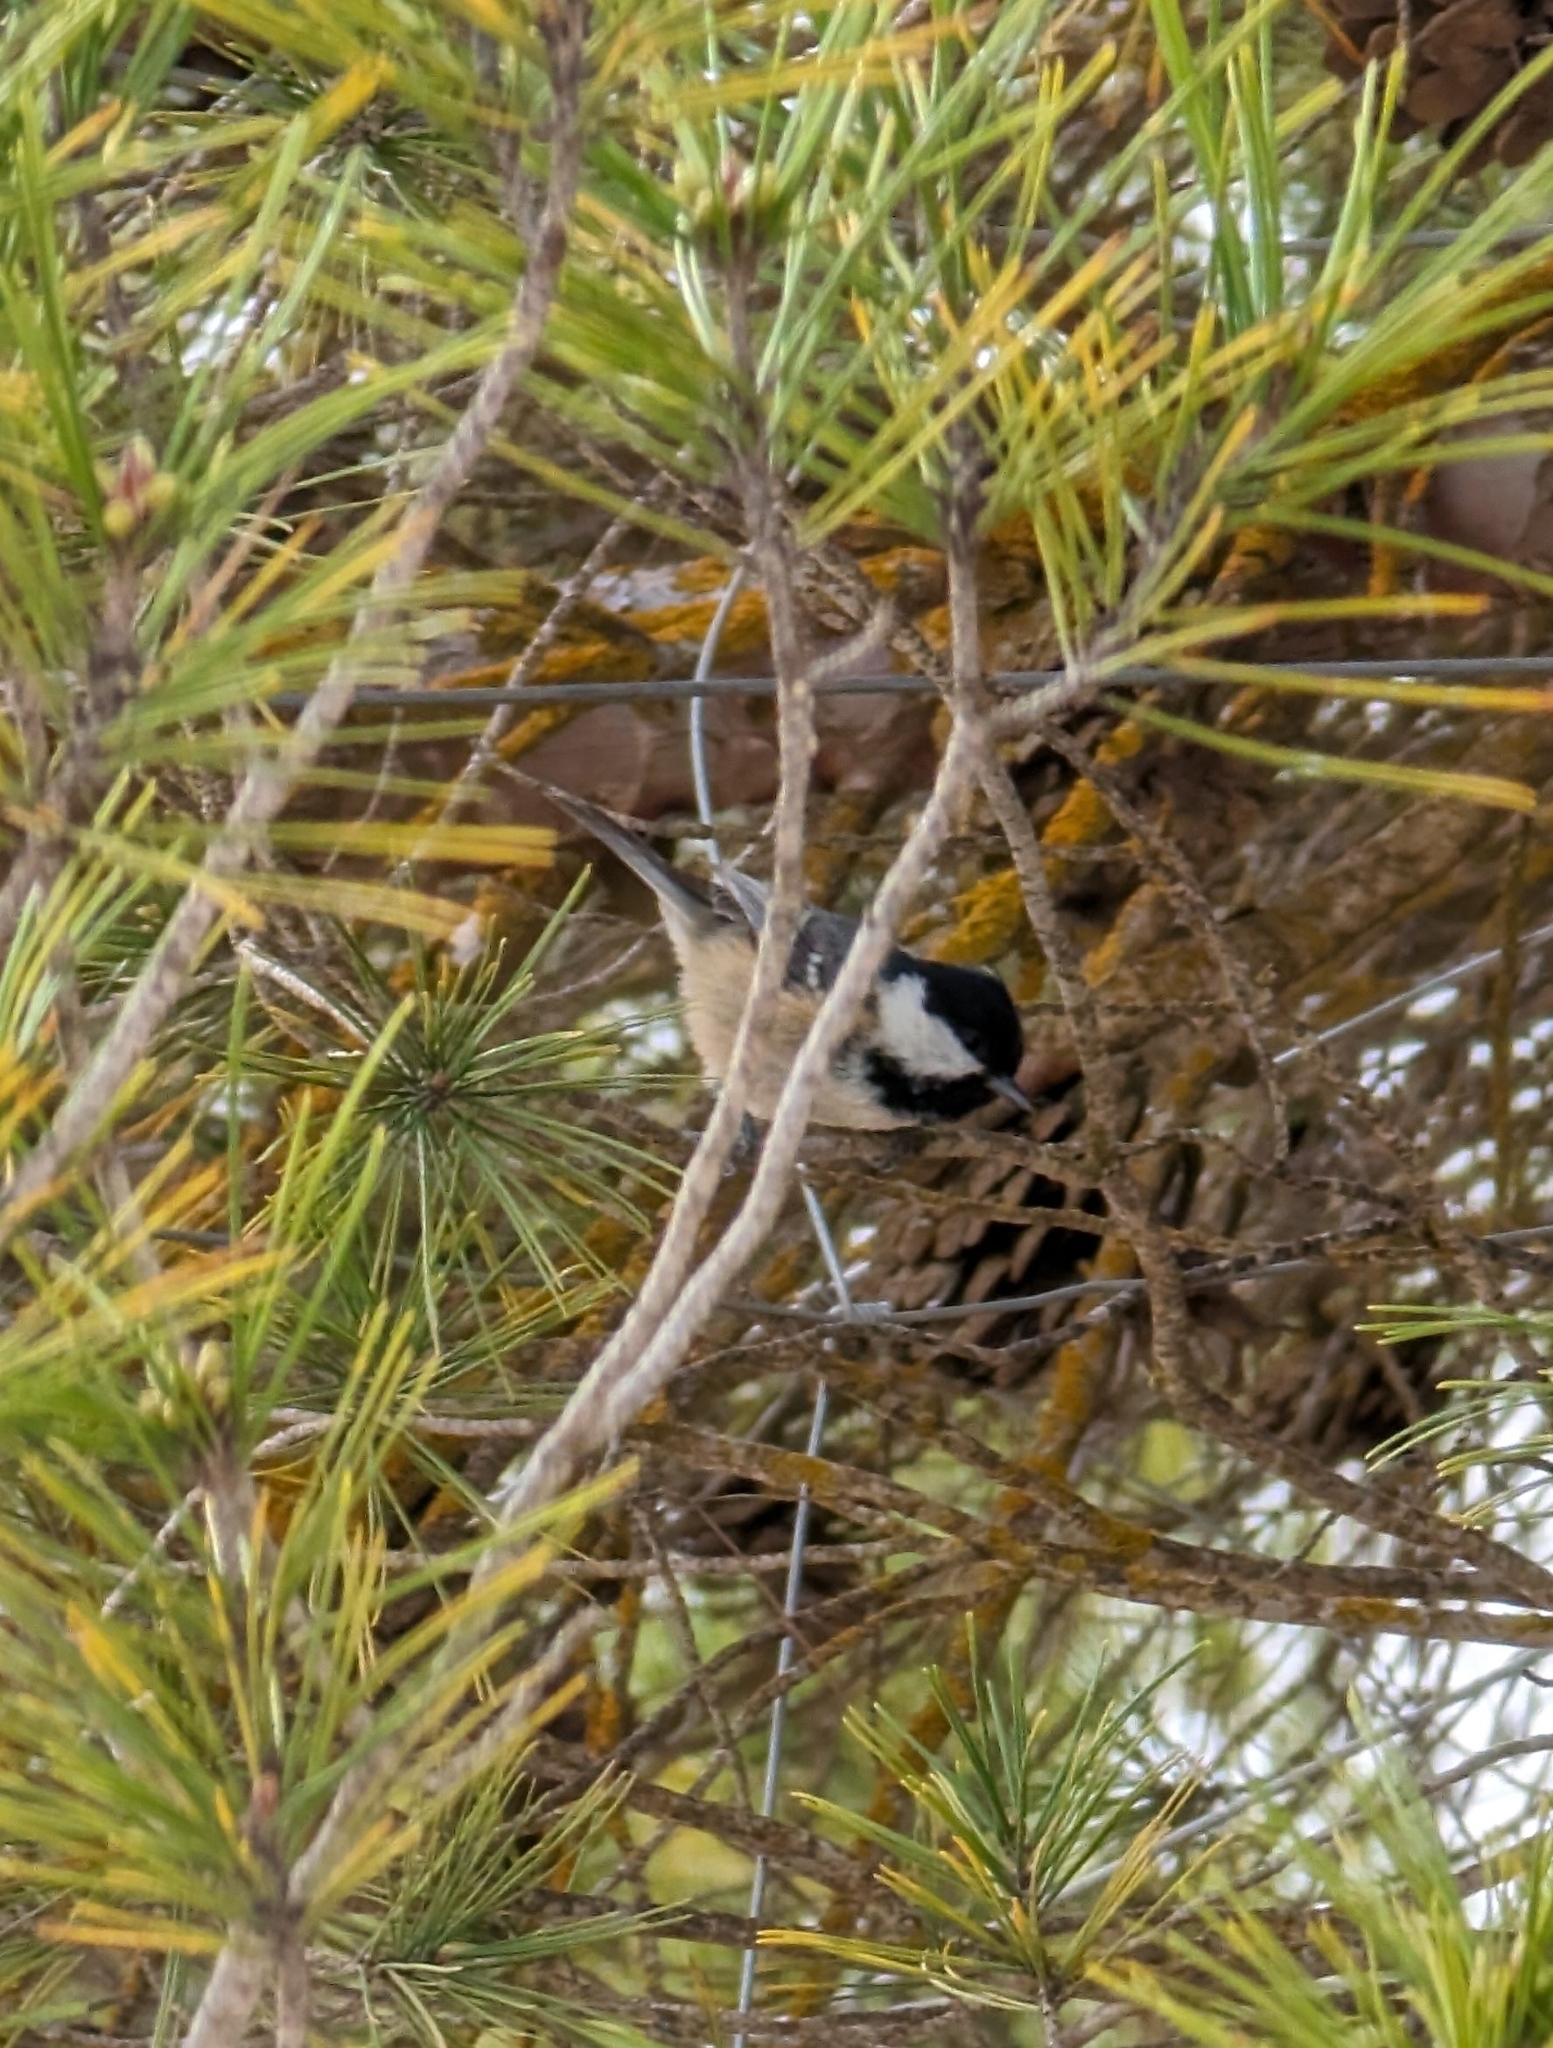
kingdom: Animalia
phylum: Chordata
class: Aves
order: Passeriformes
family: Paridae
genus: Periparus
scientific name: Periparus ater
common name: Coal tit
